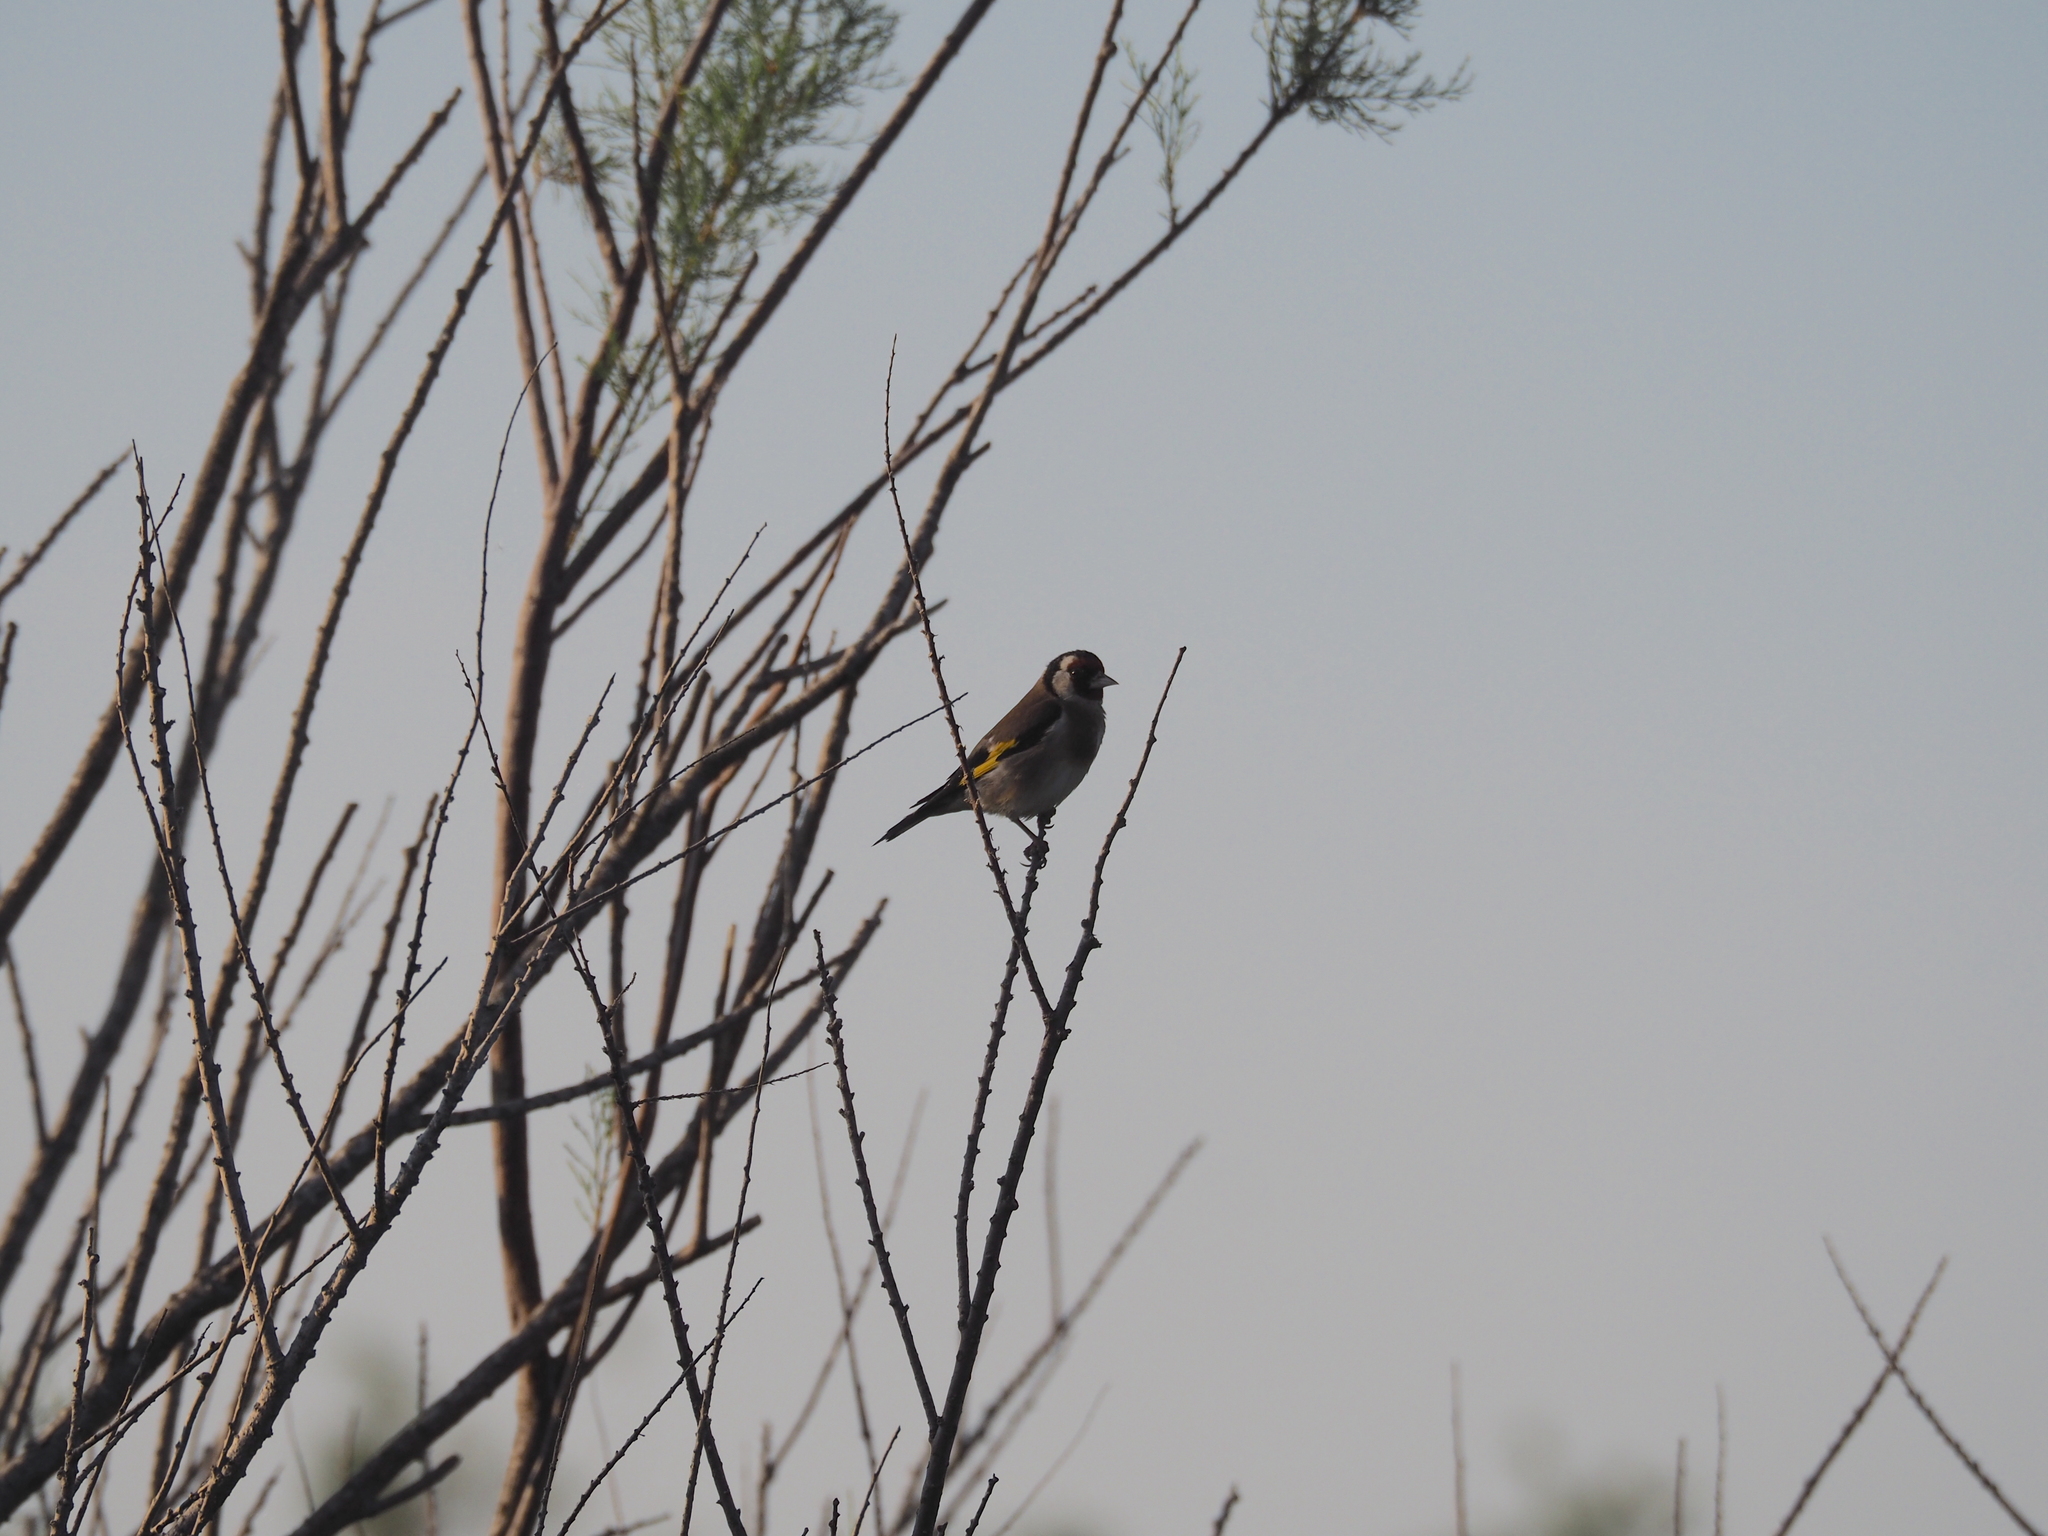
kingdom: Animalia
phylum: Chordata
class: Aves
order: Passeriformes
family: Fringillidae
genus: Carduelis
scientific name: Carduelis carduelis
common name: European goldfinch
